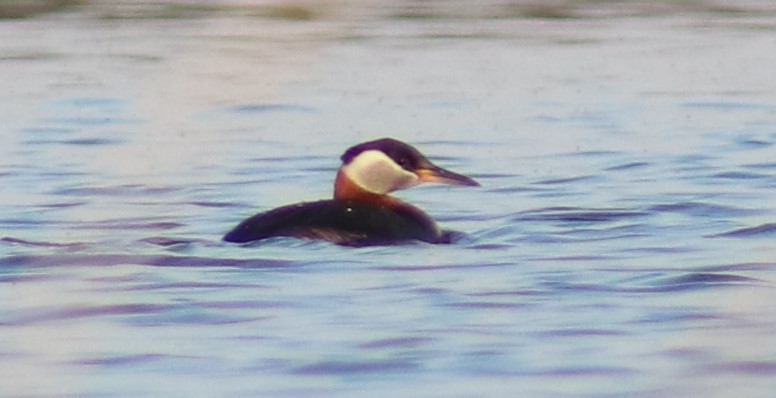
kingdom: Animalia
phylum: Chordata
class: Aves
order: Podicipediformes
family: Podicipedidae
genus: Podiceps
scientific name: Podiceps grisegena
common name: Red-necked grebe
